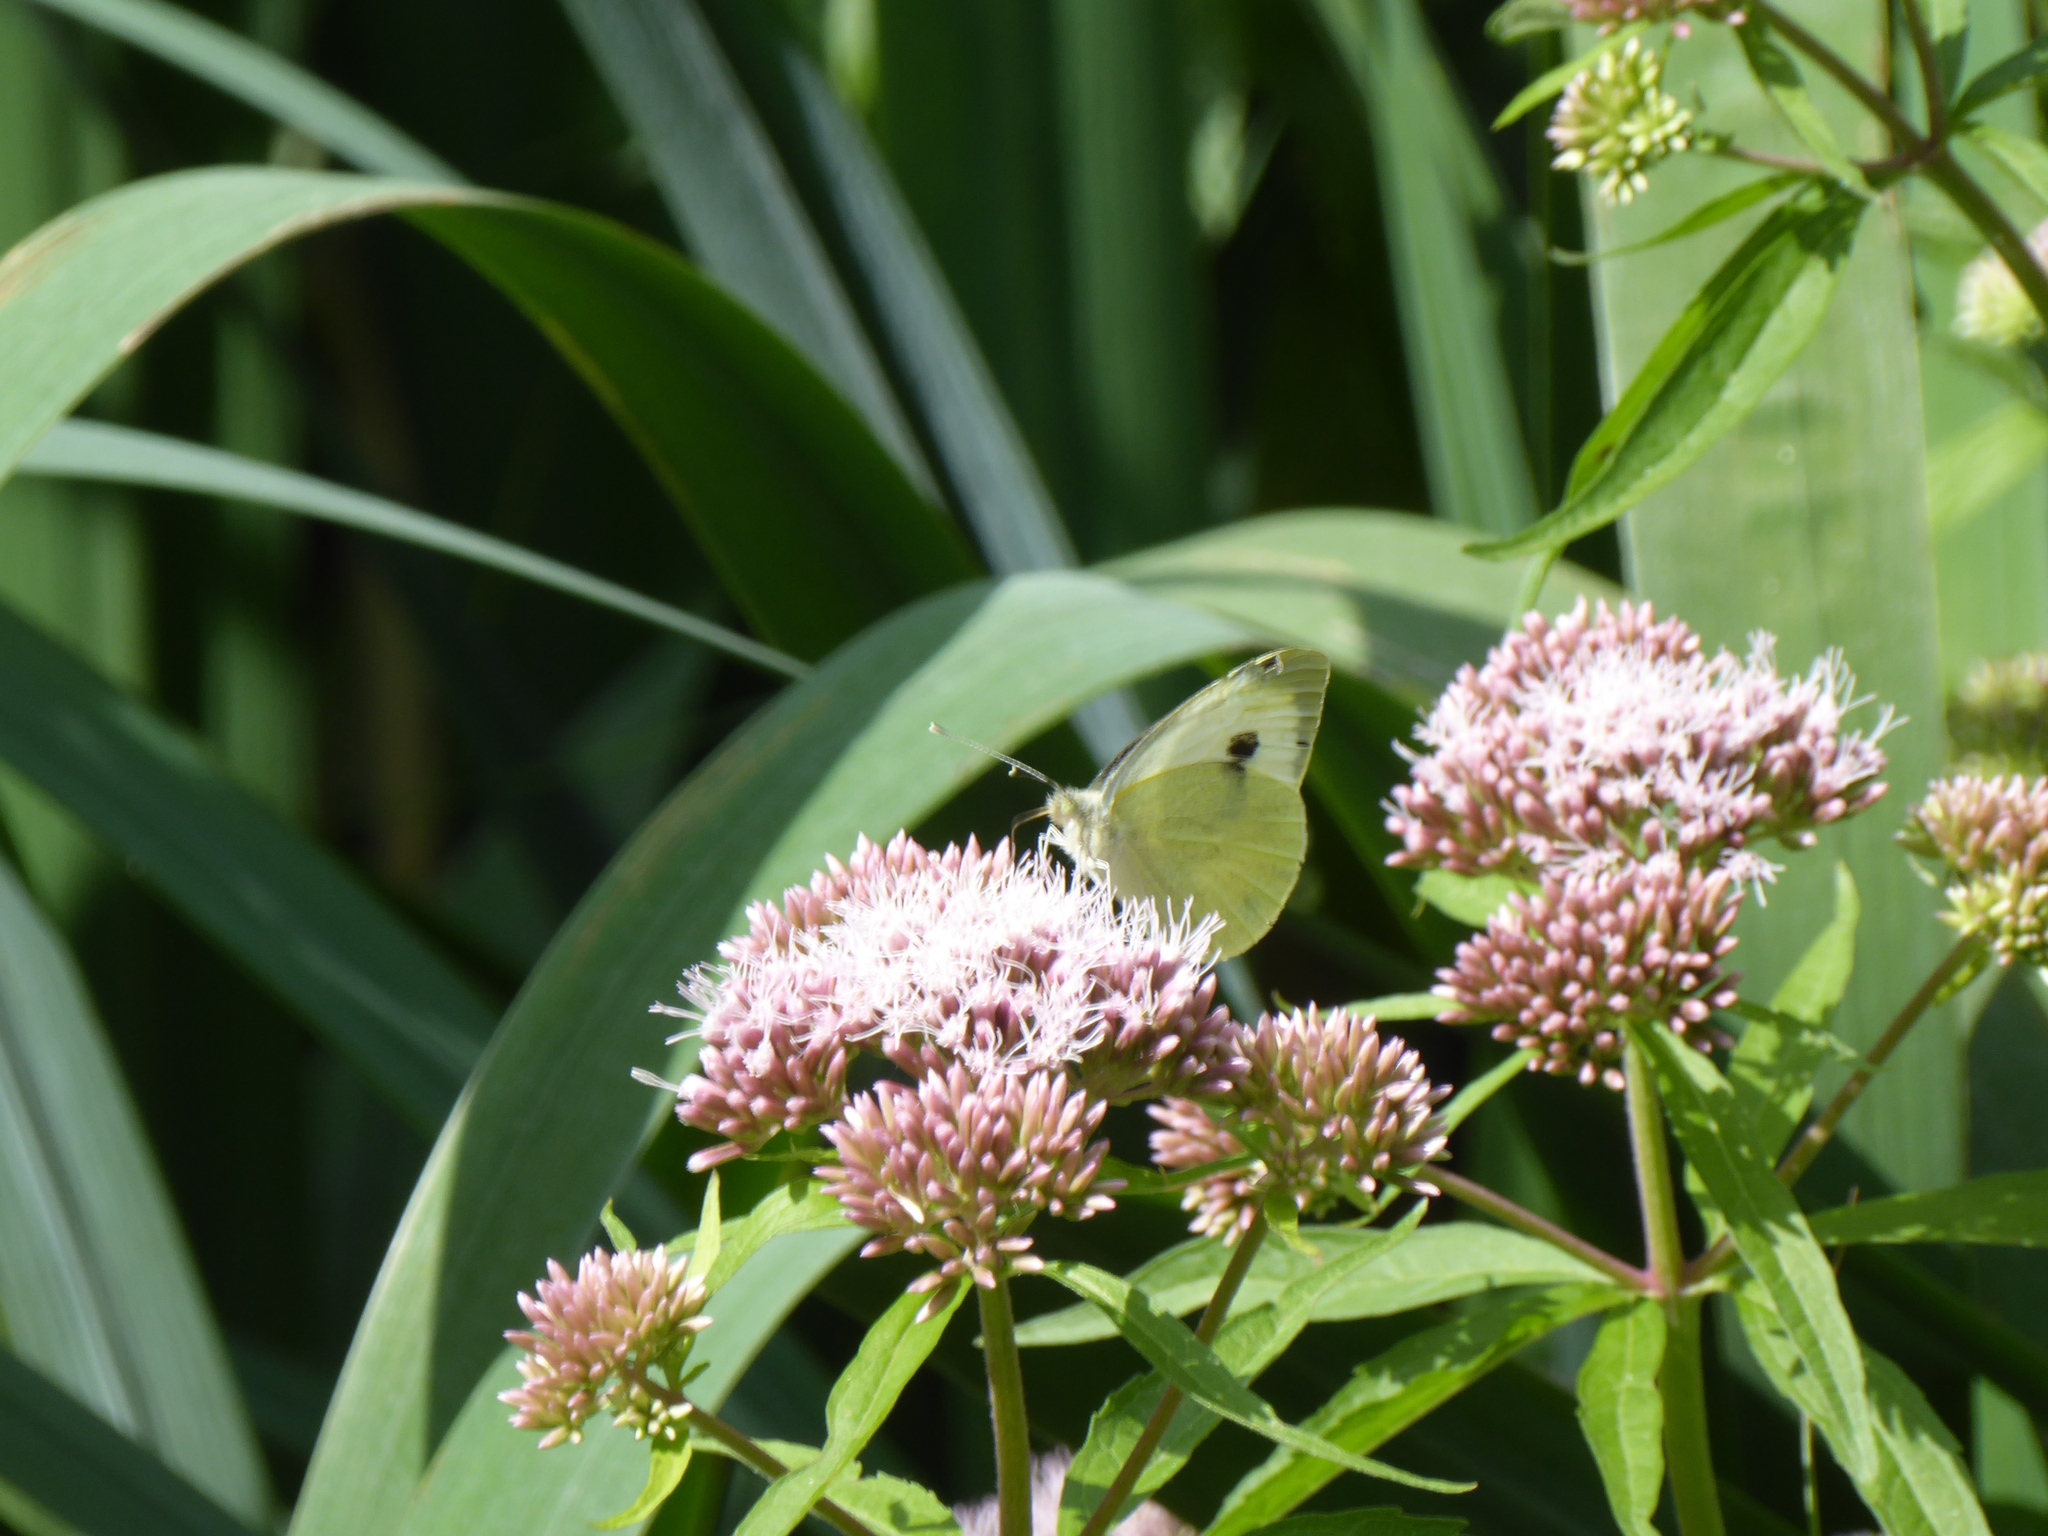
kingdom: Animalia
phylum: Arthropoda
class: Insecta
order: Lepidoptera
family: Pieridae
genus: Pieris
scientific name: Pieris brassicae
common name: Large white
